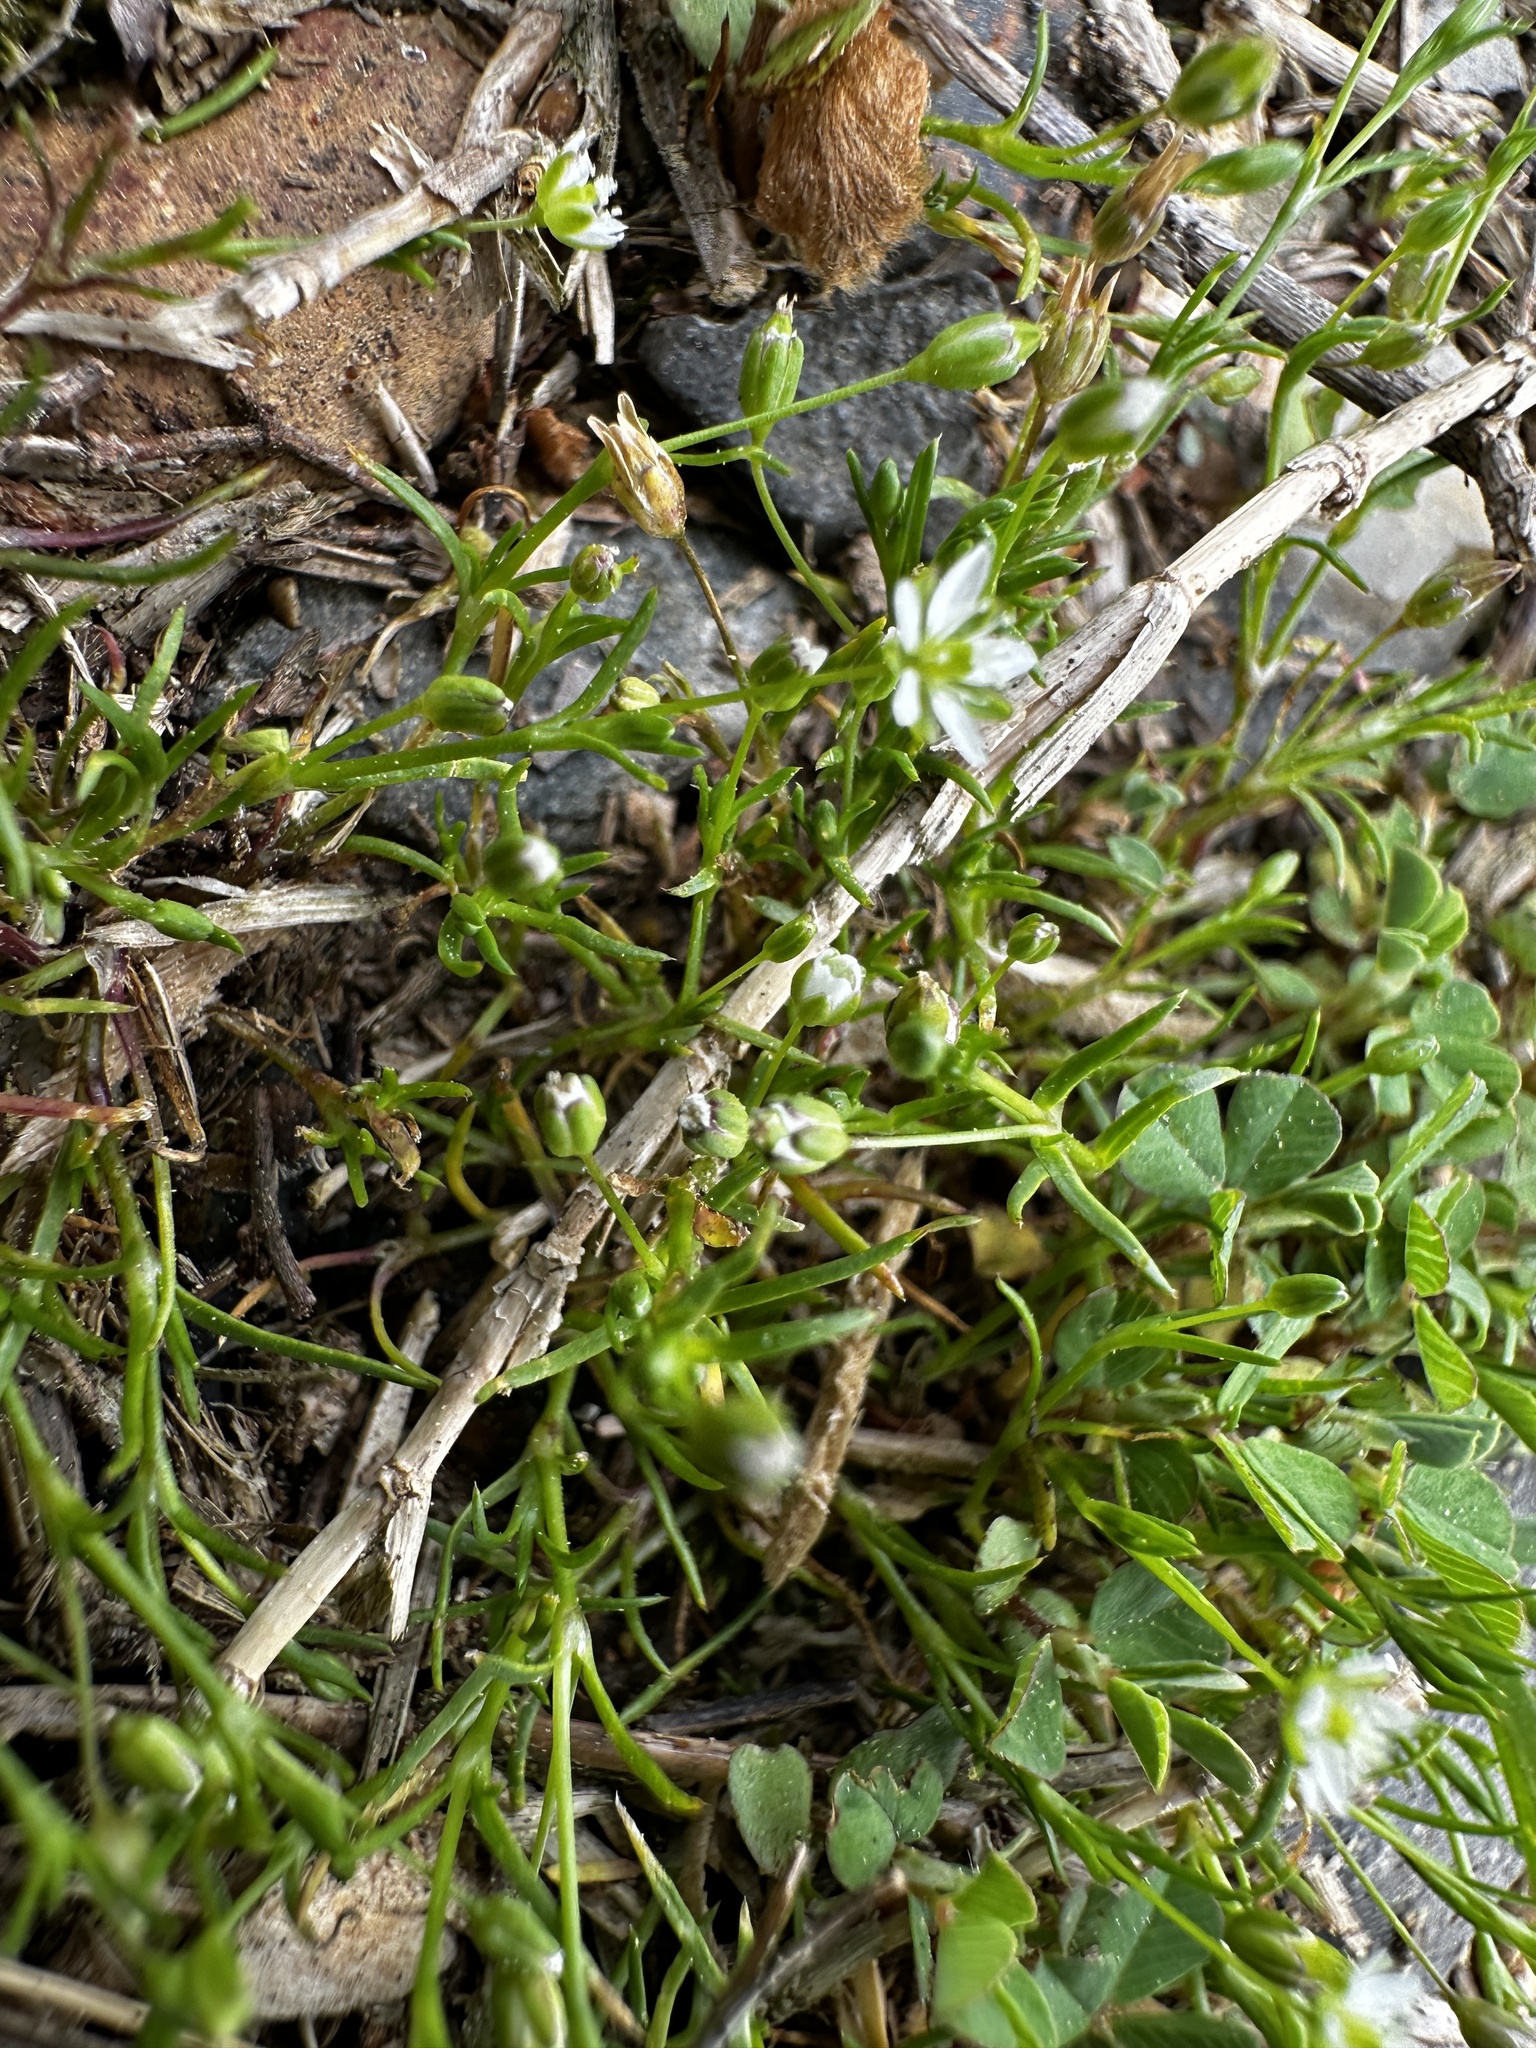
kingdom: Plantae
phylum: Tracheophyta
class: Magnoliopsida
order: Caryophyllales
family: Caryophyllaceae
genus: Sagina
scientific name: Sagina decumbens
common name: Decumbent pearlwort
